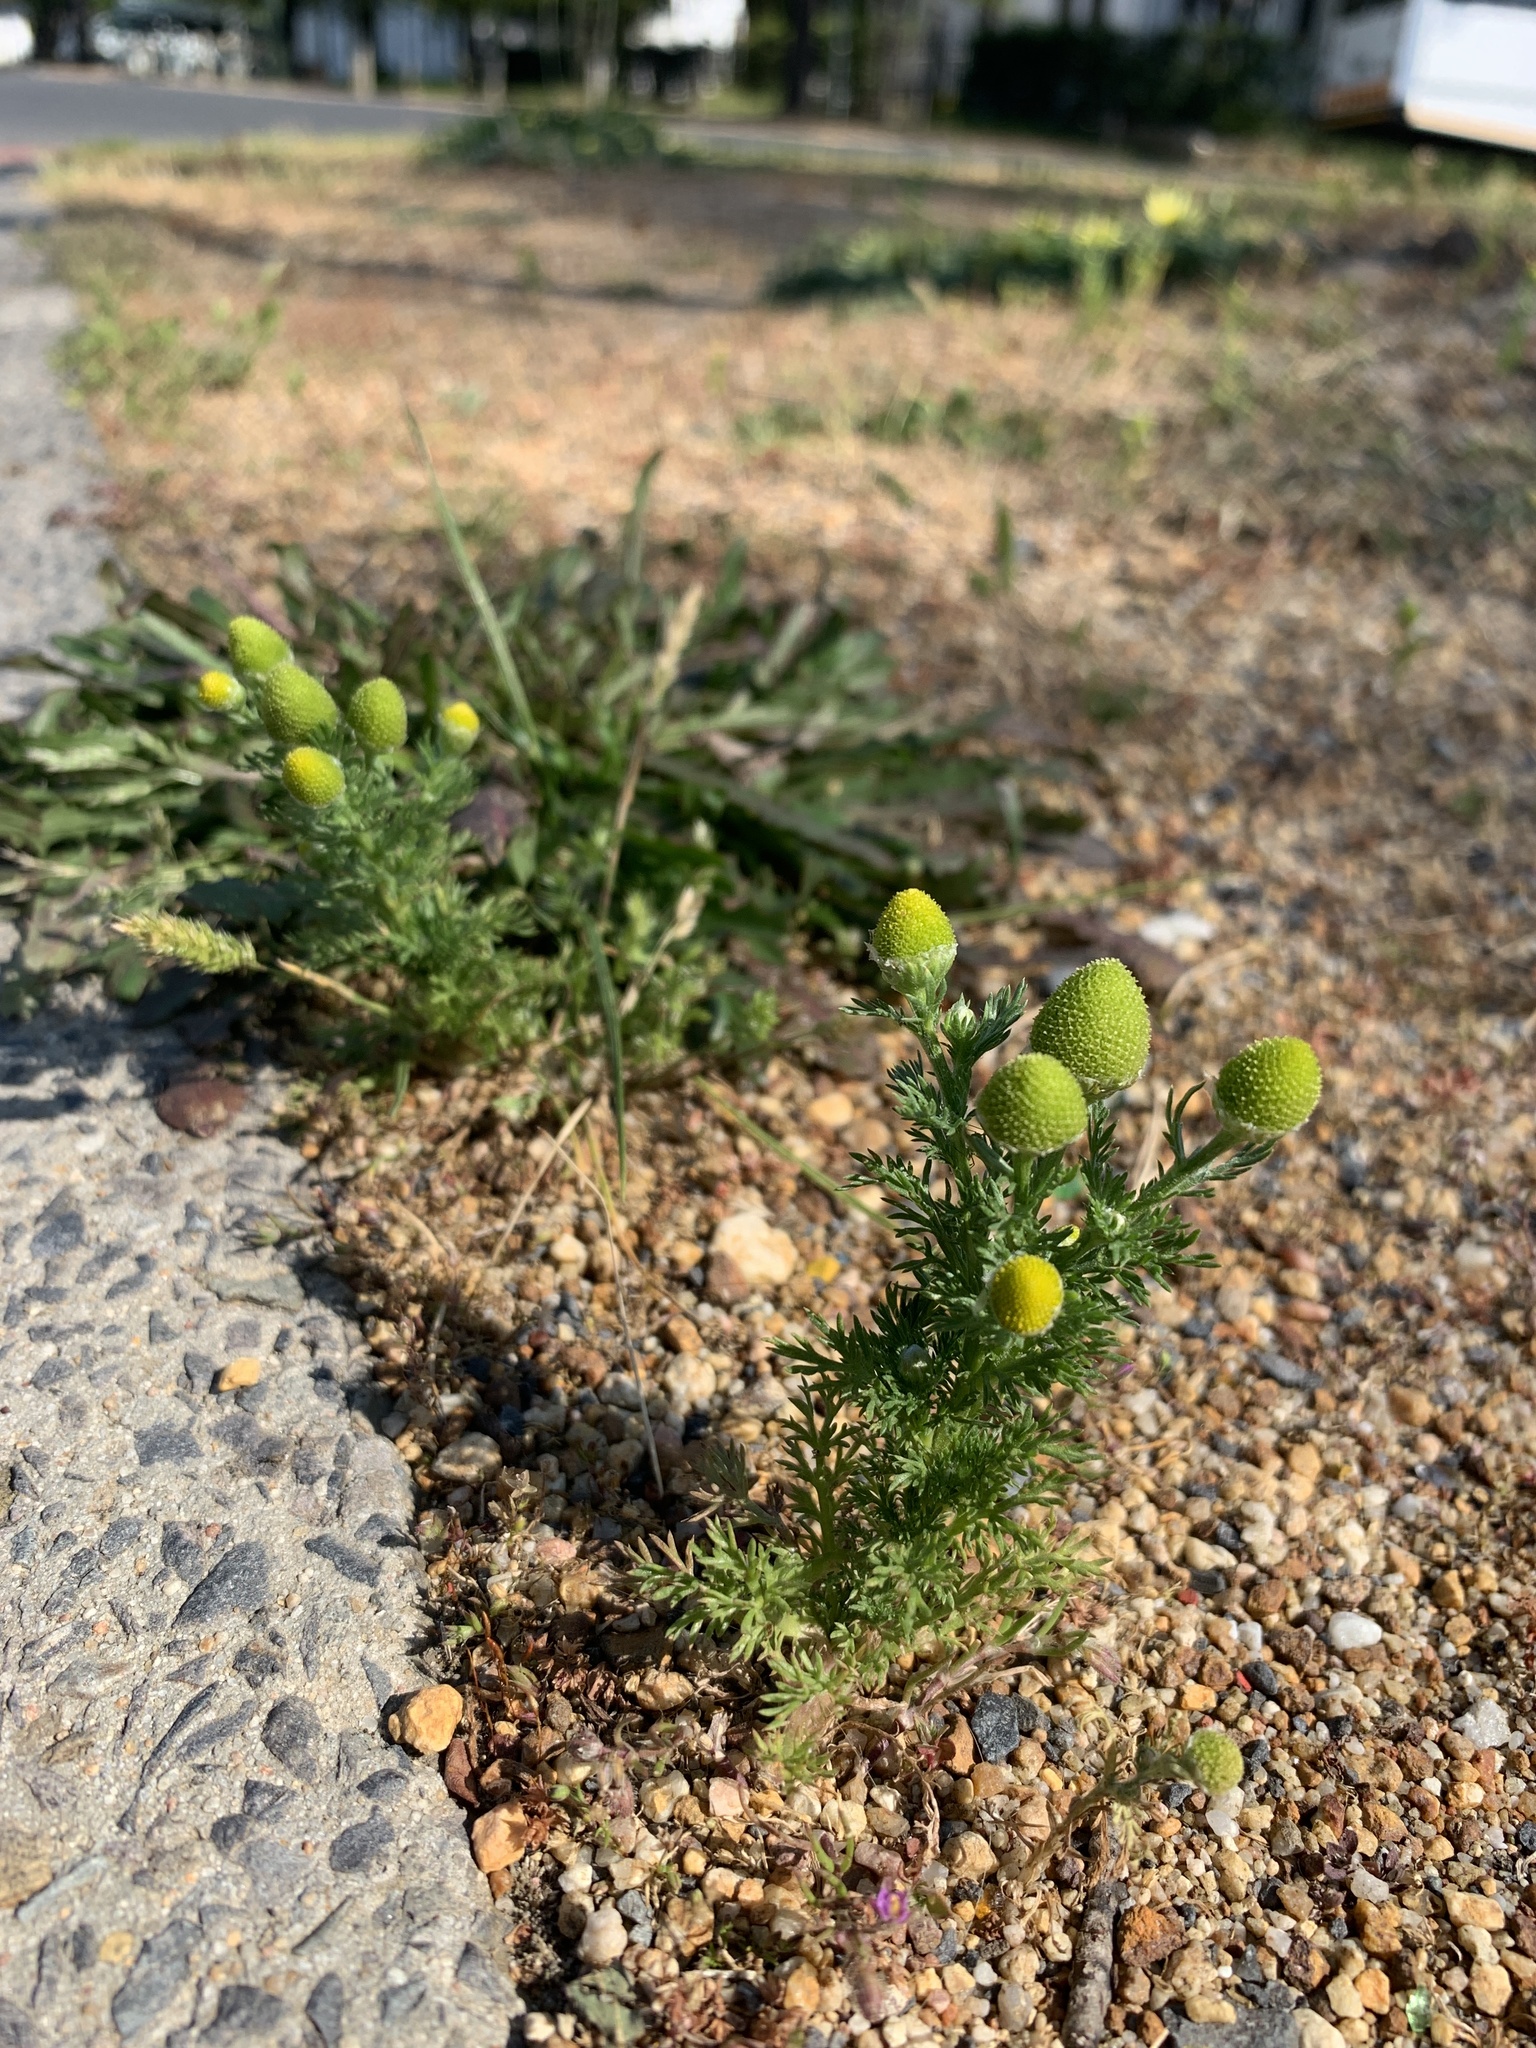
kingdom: Plantae
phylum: Tracheophyta
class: Magnoliopsida
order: Asterales
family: Asteraceae
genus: Matricaria
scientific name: Matricaria discoidea
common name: Disc mayweed
